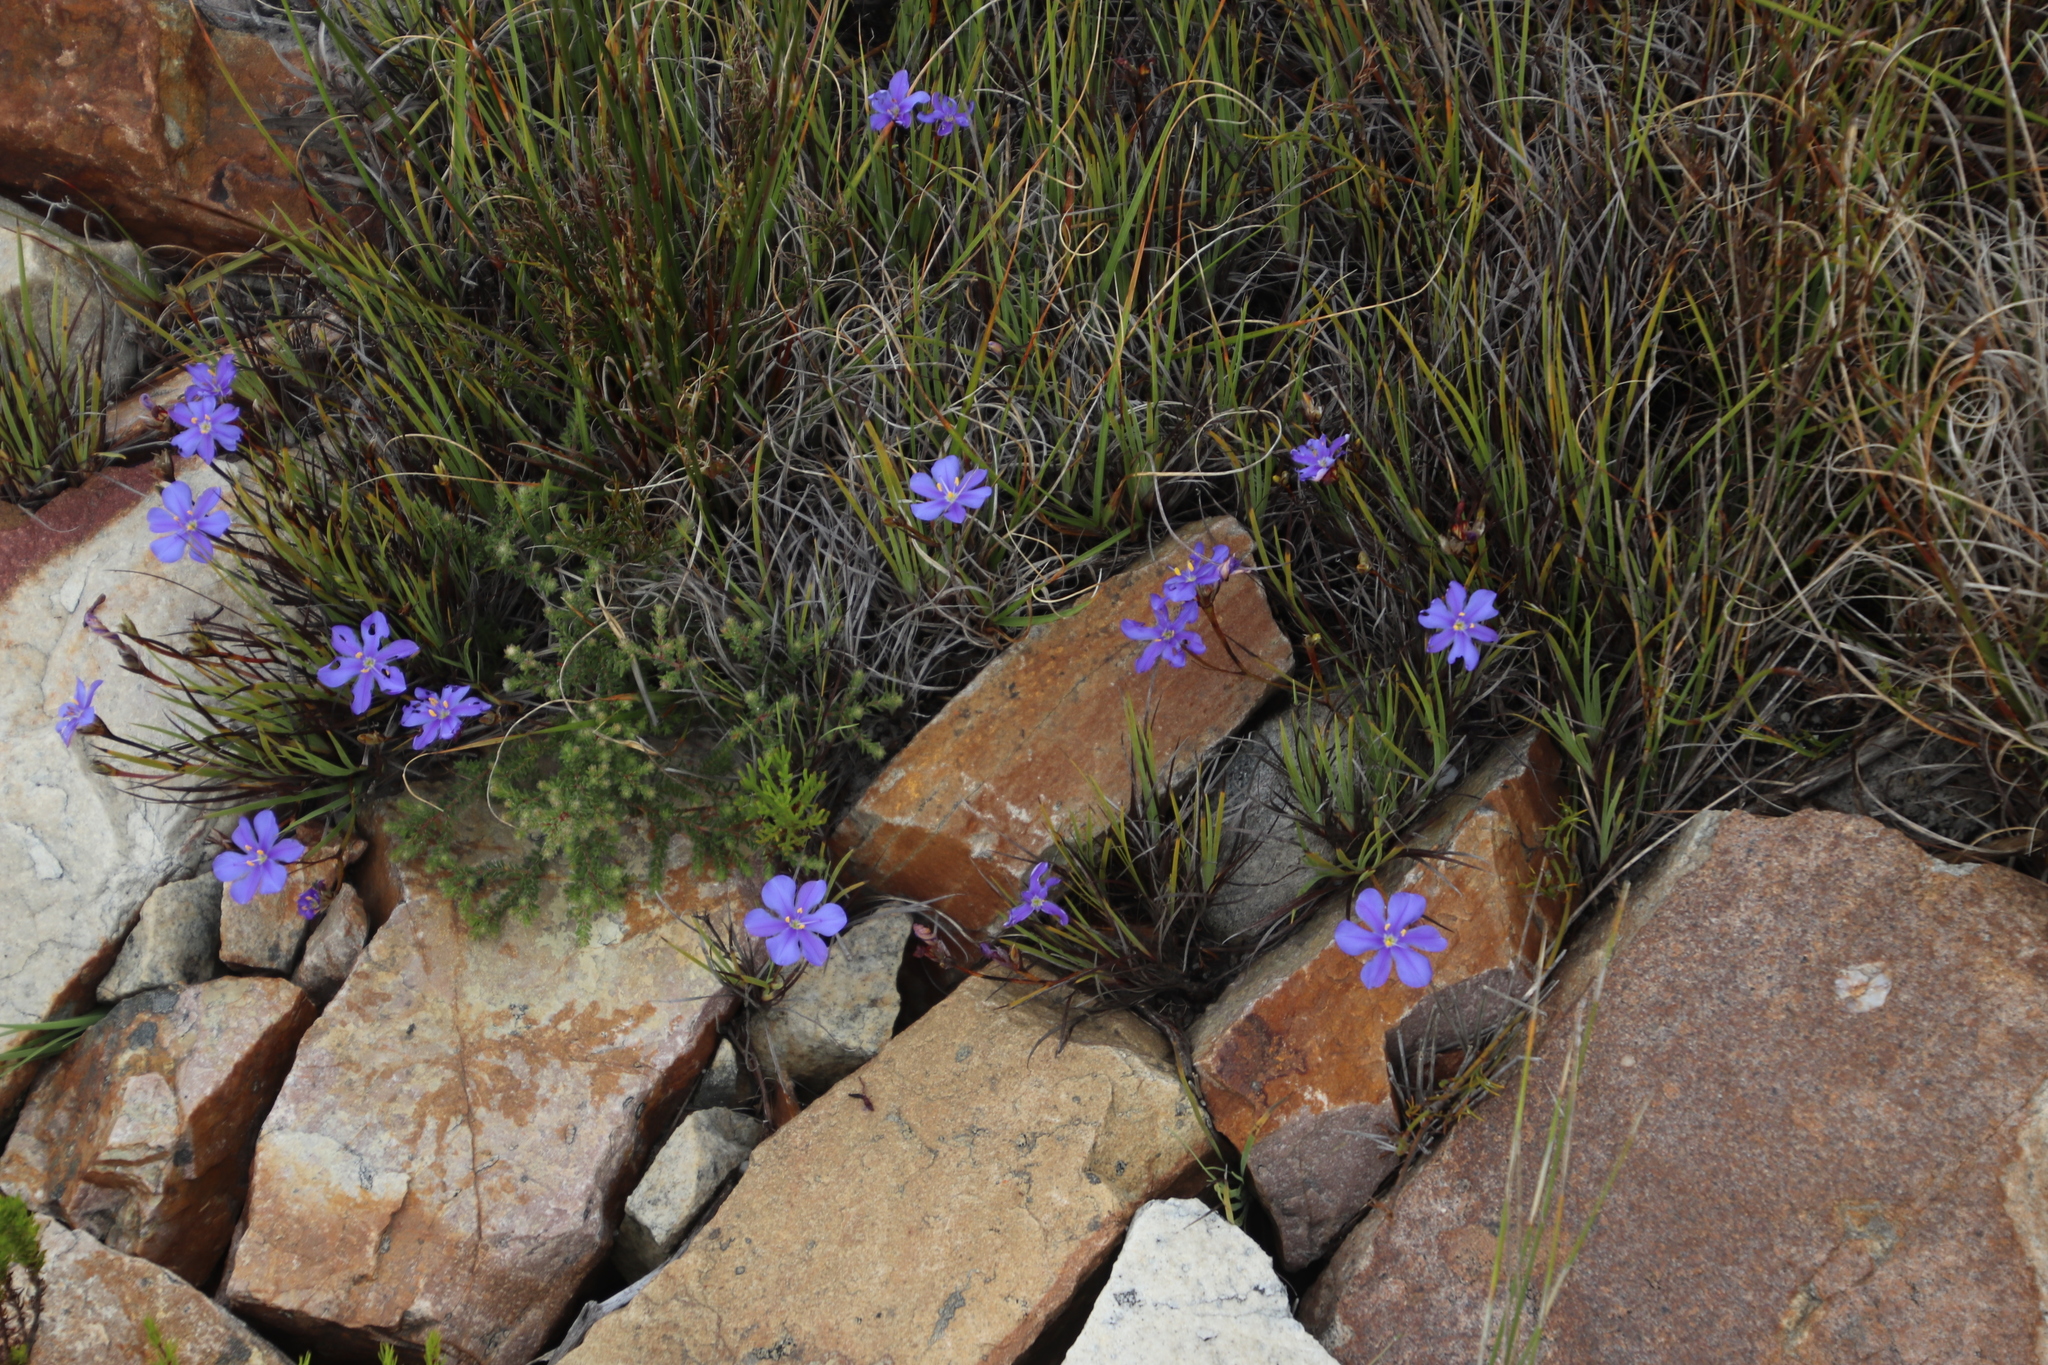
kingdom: Plantae
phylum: Tracheophyta
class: Liliopsida
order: Asparagales
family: Iridaceae
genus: Aristea
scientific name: Aristea africana
